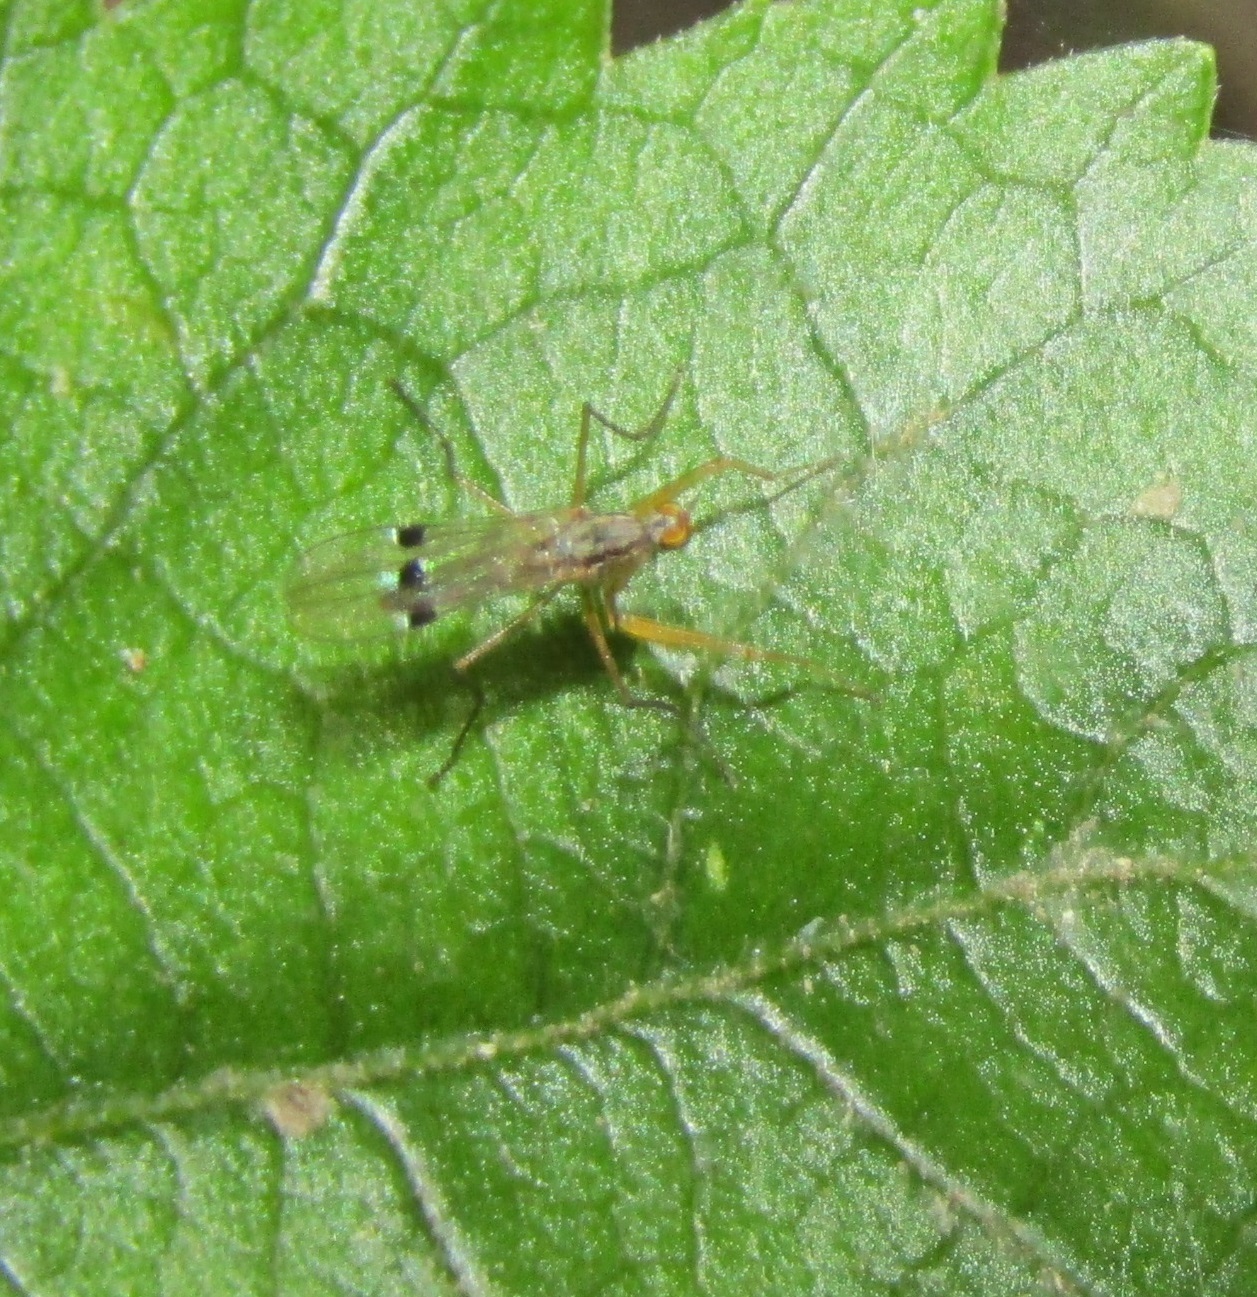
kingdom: Animalia
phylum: Arthropoda
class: Insecta
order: Diptera
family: Empididae
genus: Chelipoda
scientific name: Chelipoda mirabilis
